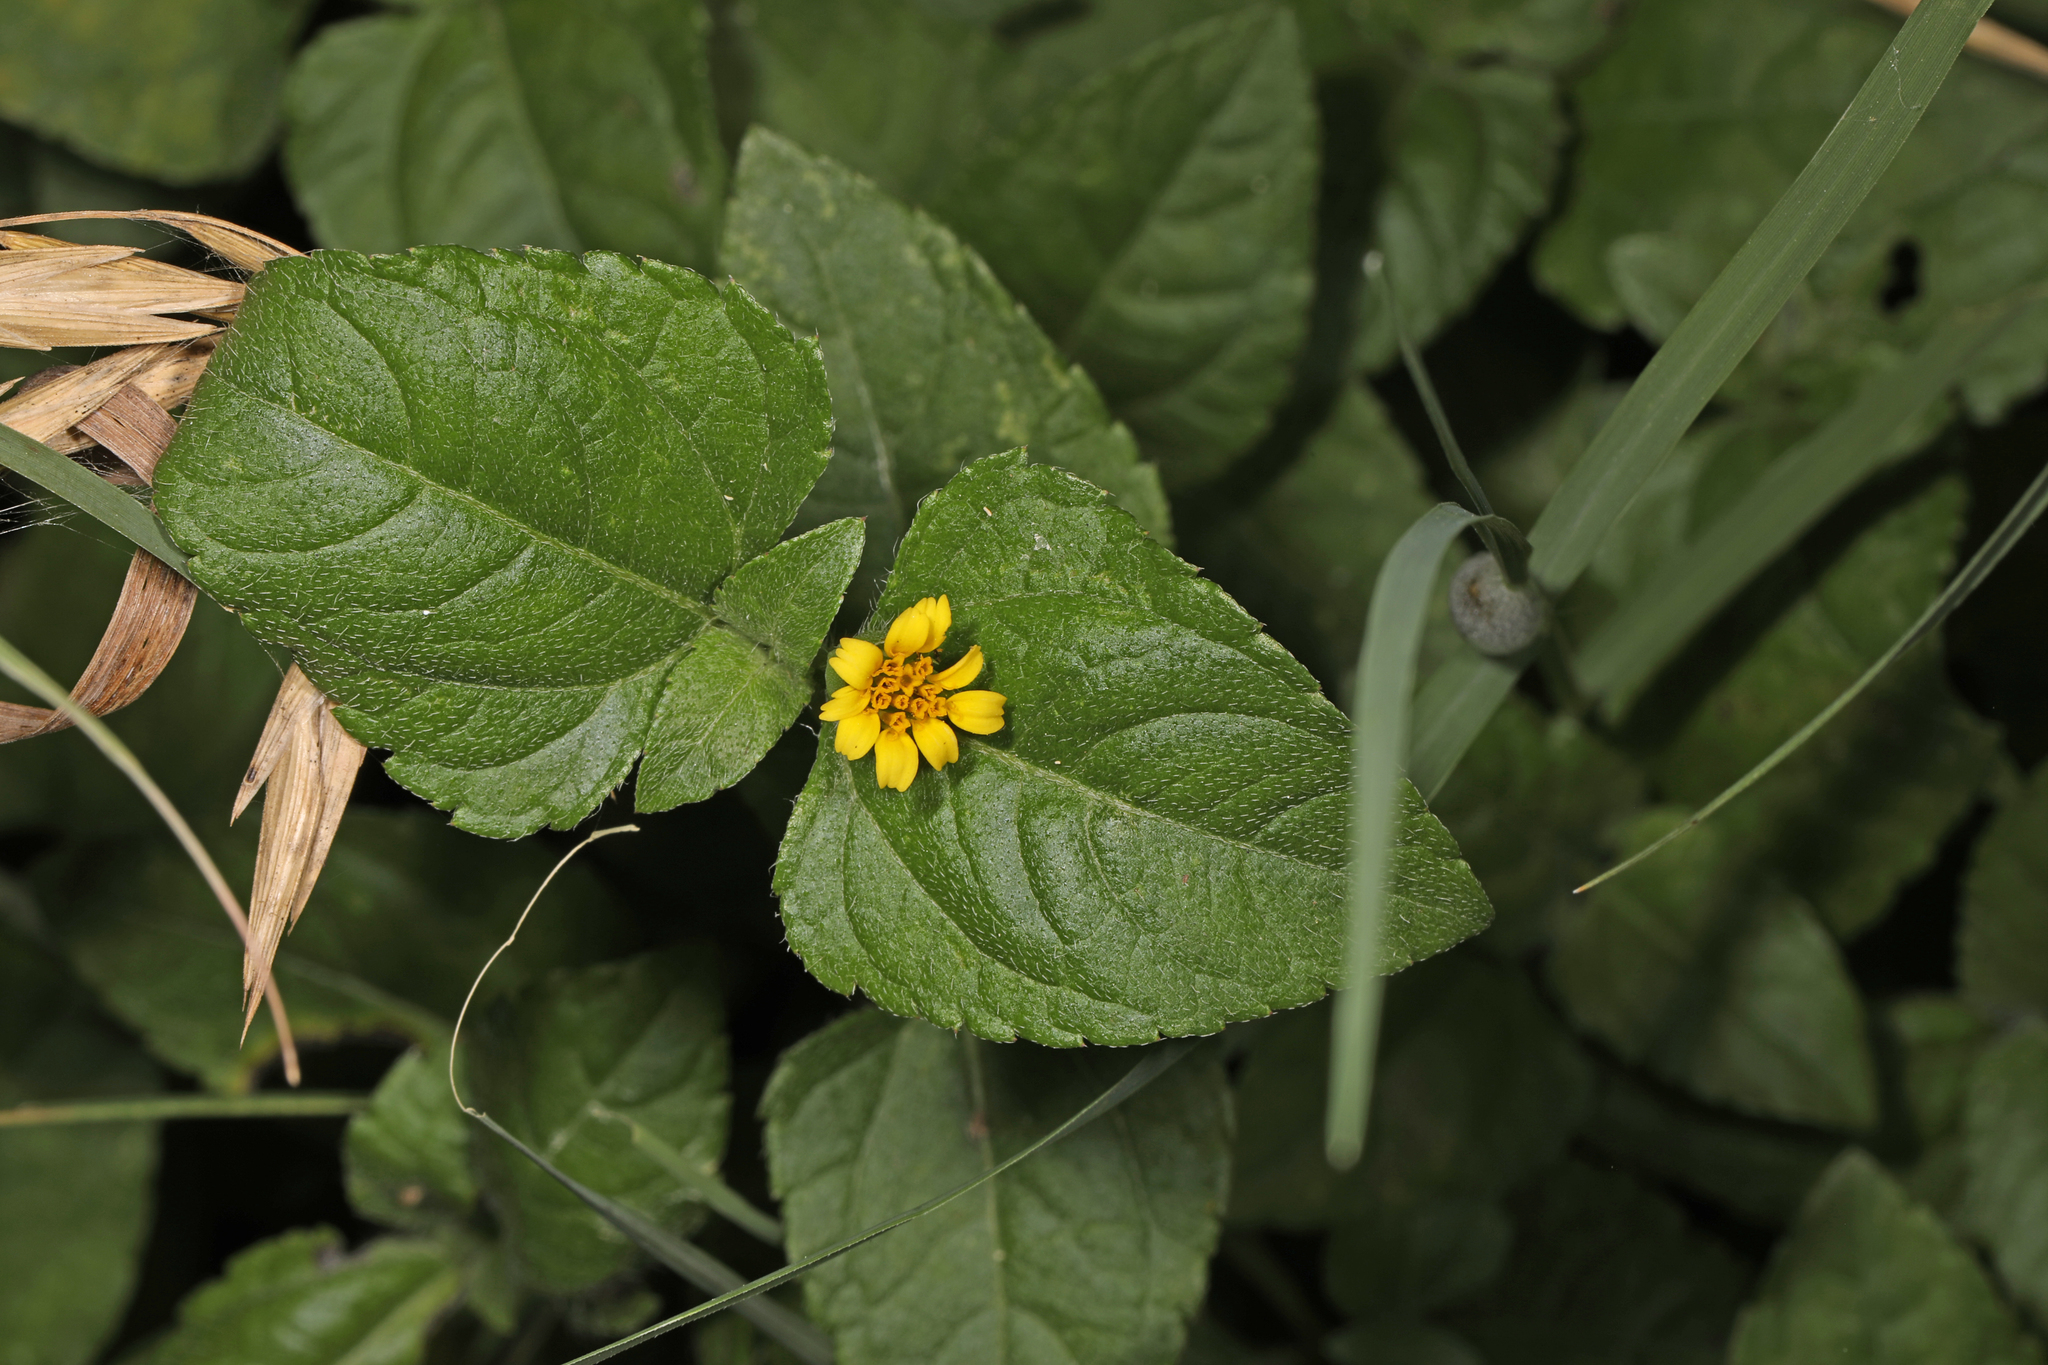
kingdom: Plantae
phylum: Tracheophyta
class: Magnoliopsida
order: Asterales
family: Asteraceae
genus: Calyptocarpus
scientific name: Calyptocarpus vialis
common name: Straggler daisy
